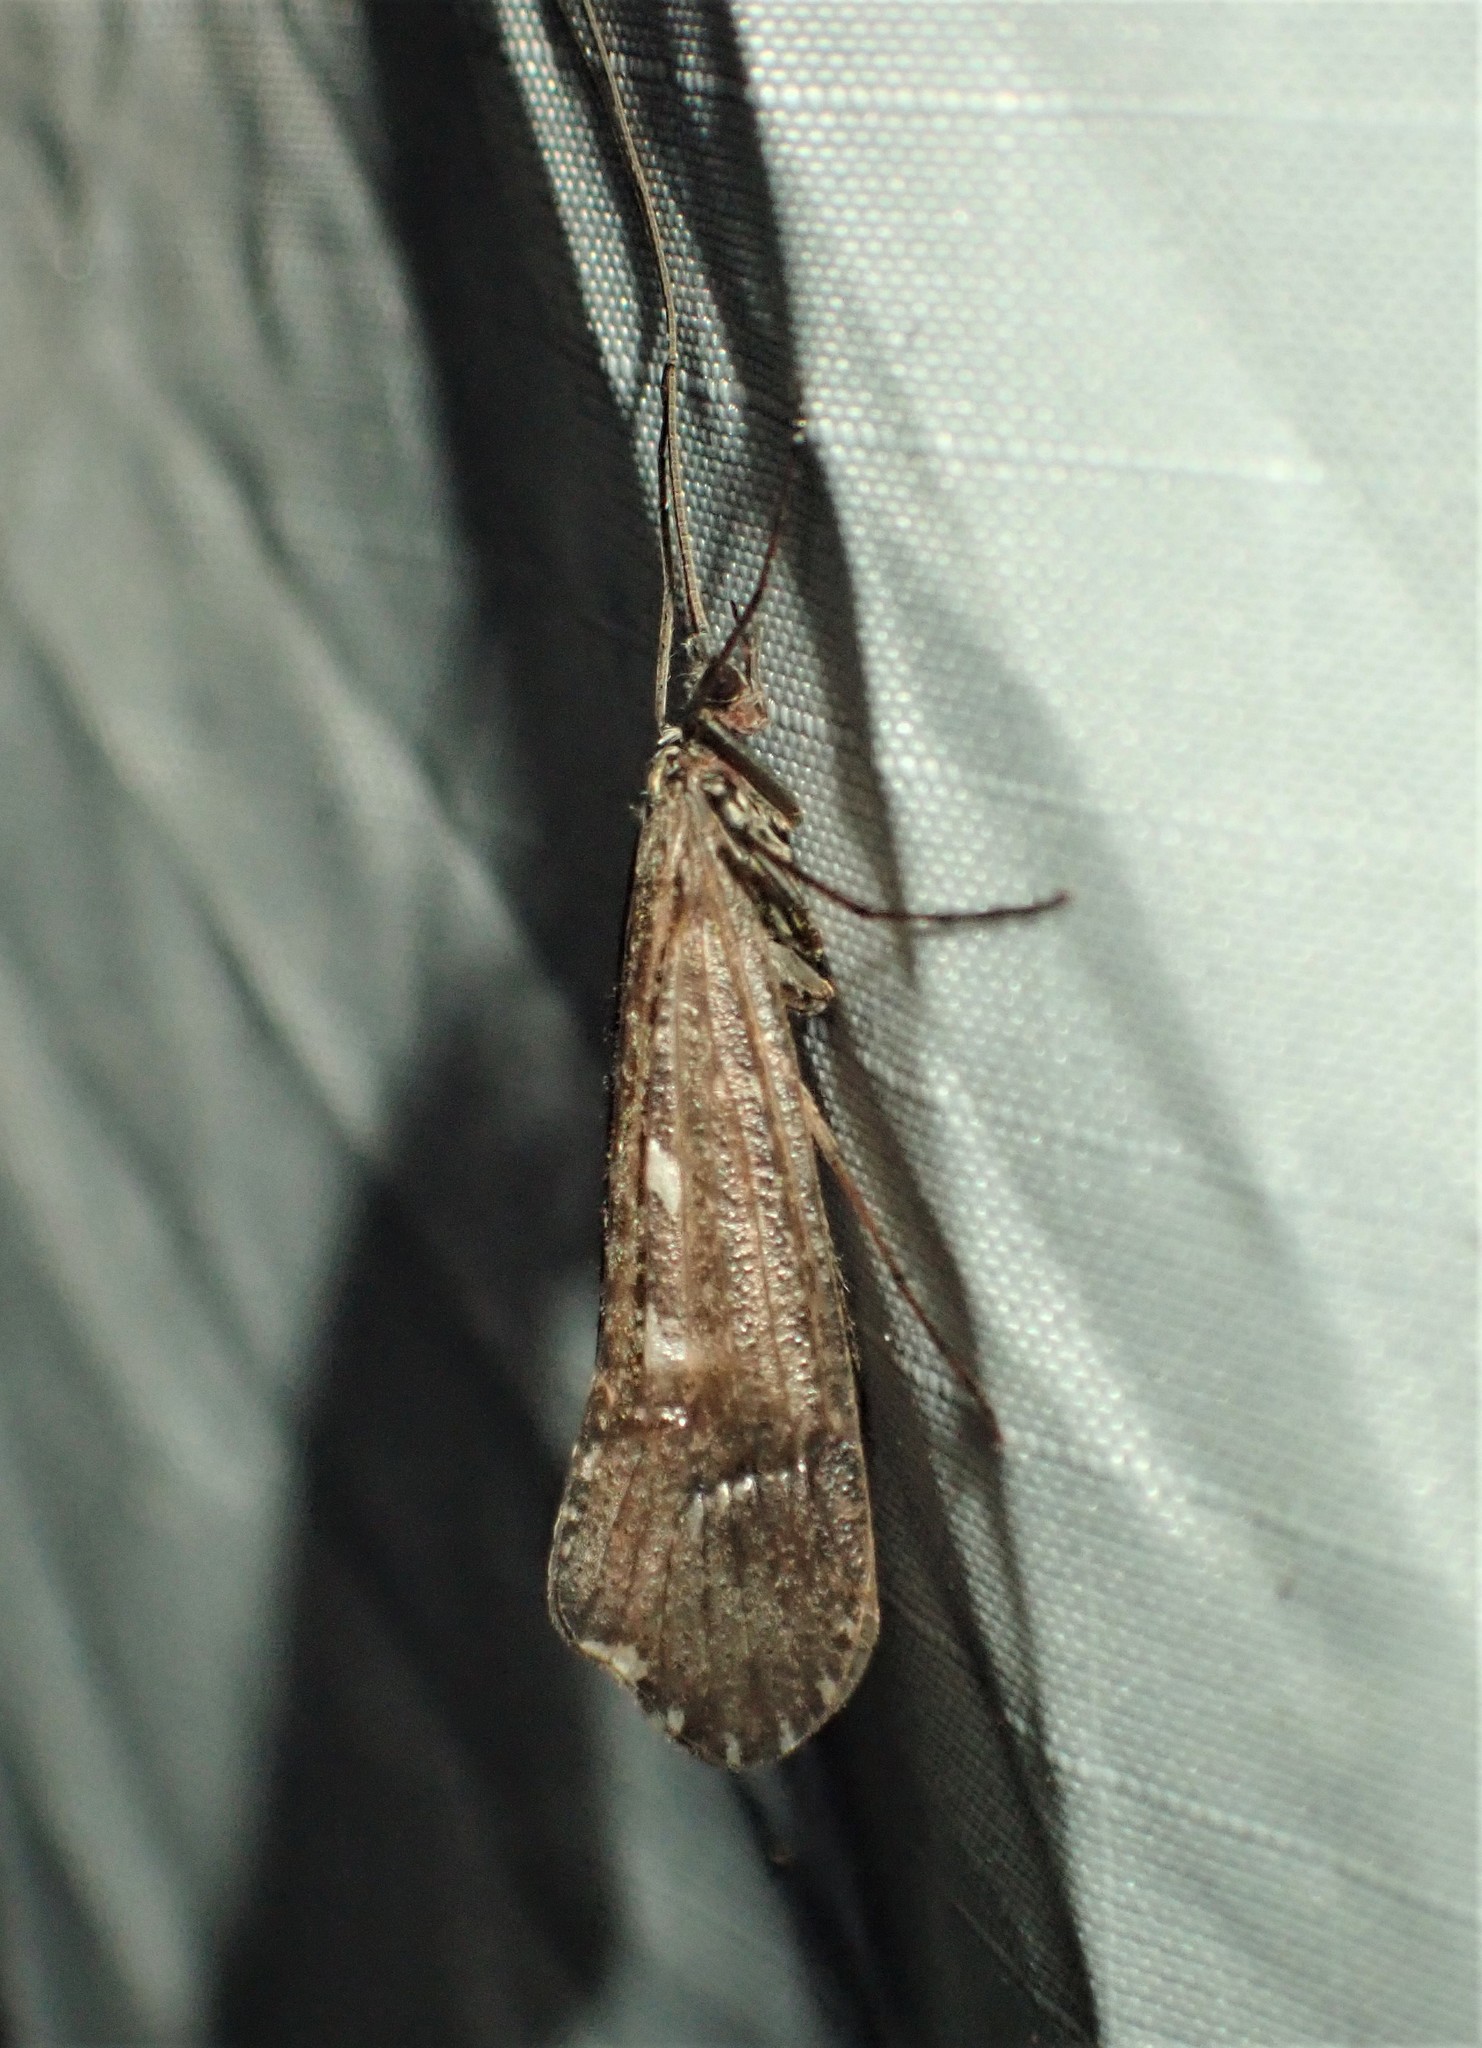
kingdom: Animalia
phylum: Arthropoda
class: Insecta
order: Trichoptera
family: Limnephilidae
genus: Glyphopsyche
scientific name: Glyphopsyche irrorata
